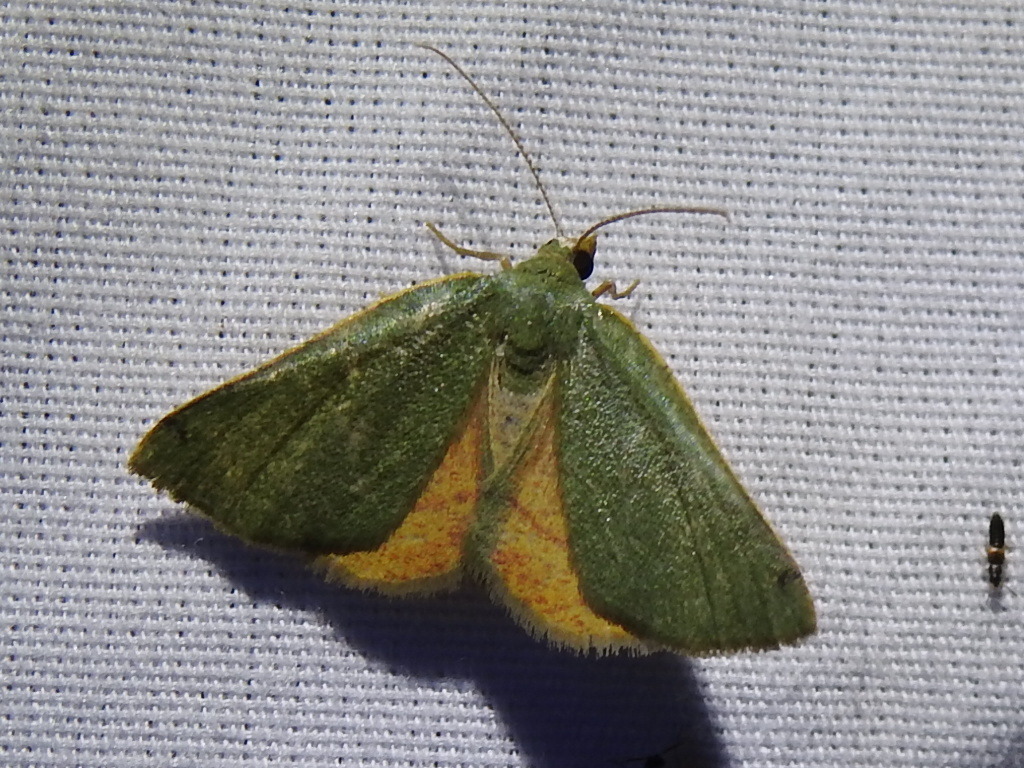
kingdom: Animalia
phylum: Arthropoda
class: Insecta
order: Lepidoptera
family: Geometridae
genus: Chloraspilates
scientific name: Chloraspilates bicoloraria
